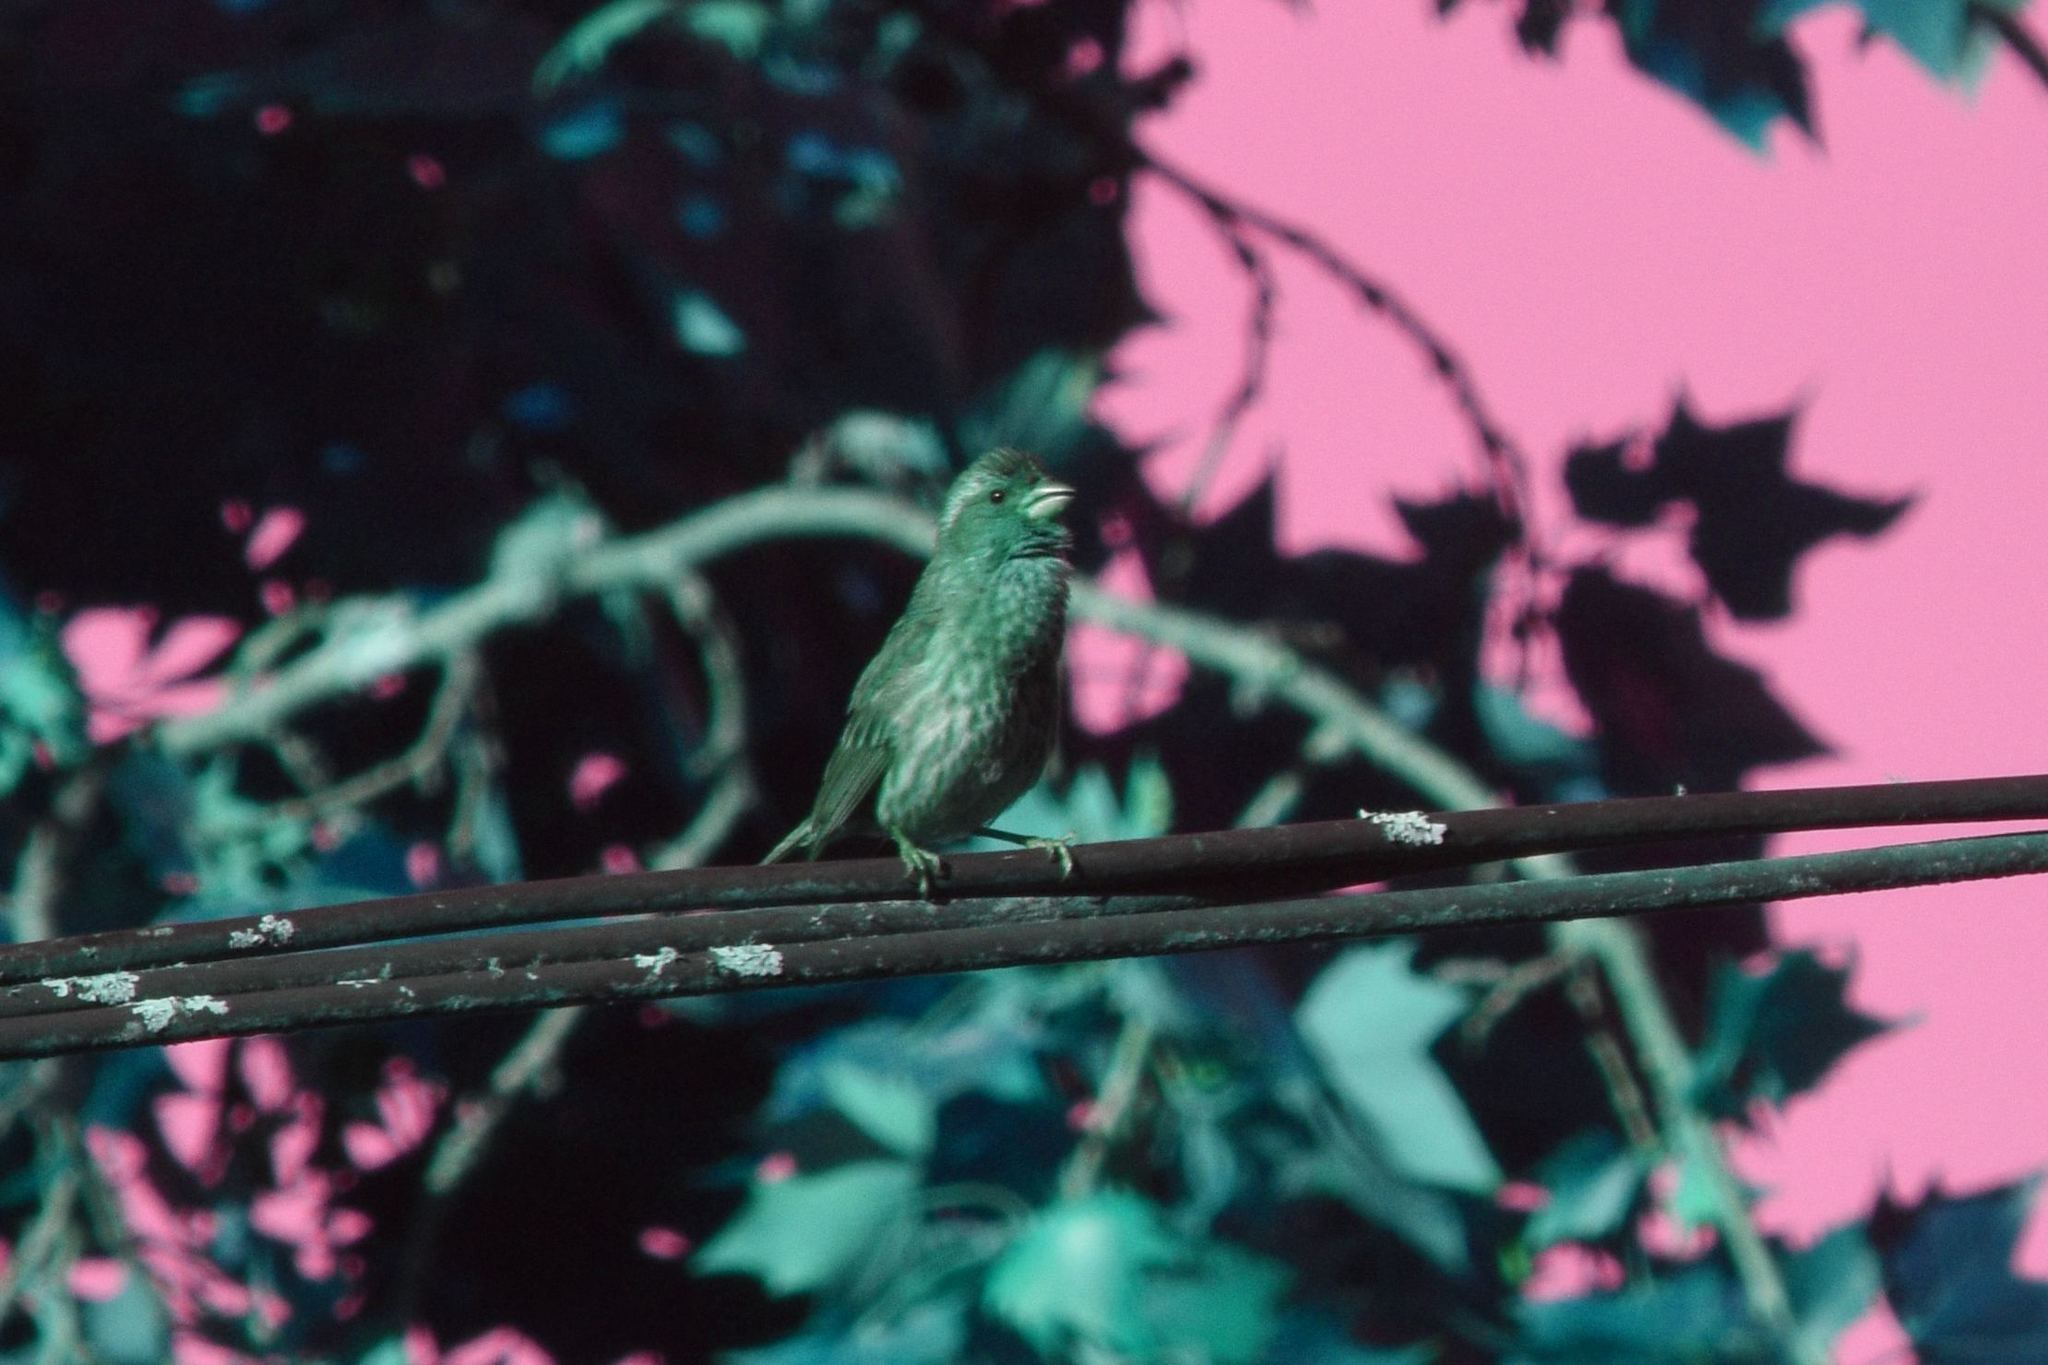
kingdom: Animalia
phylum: Chordata
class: Aves
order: Passeriformes
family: Fringillidae
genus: Haemorhous
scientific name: Haemorhous purpureus
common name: Purple finch
